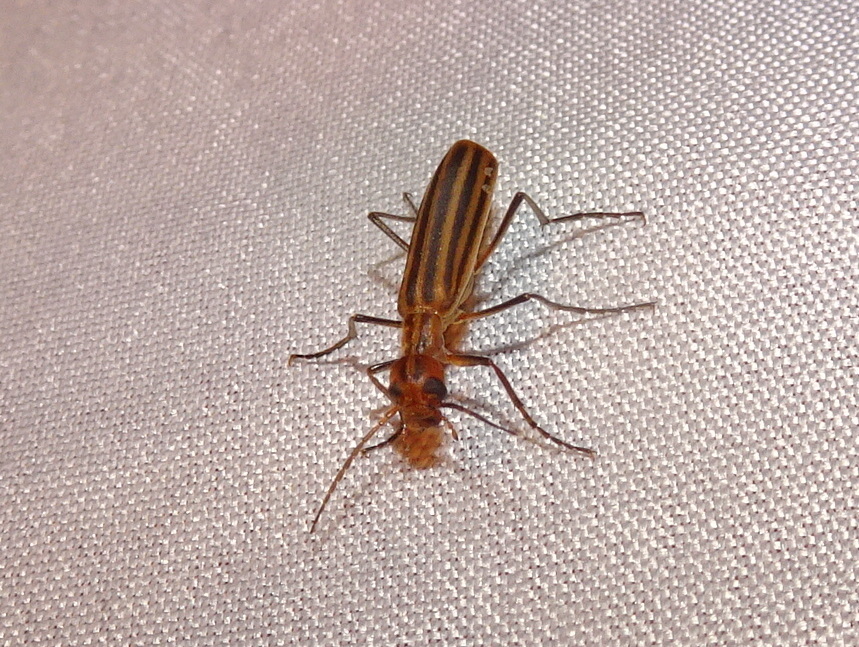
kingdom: Animalia
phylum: Arthropoda
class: Insecta
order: Coleoptera
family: Meloidae
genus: Epicauta
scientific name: Epicauta vittata
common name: Old-fashioned potato beetle
